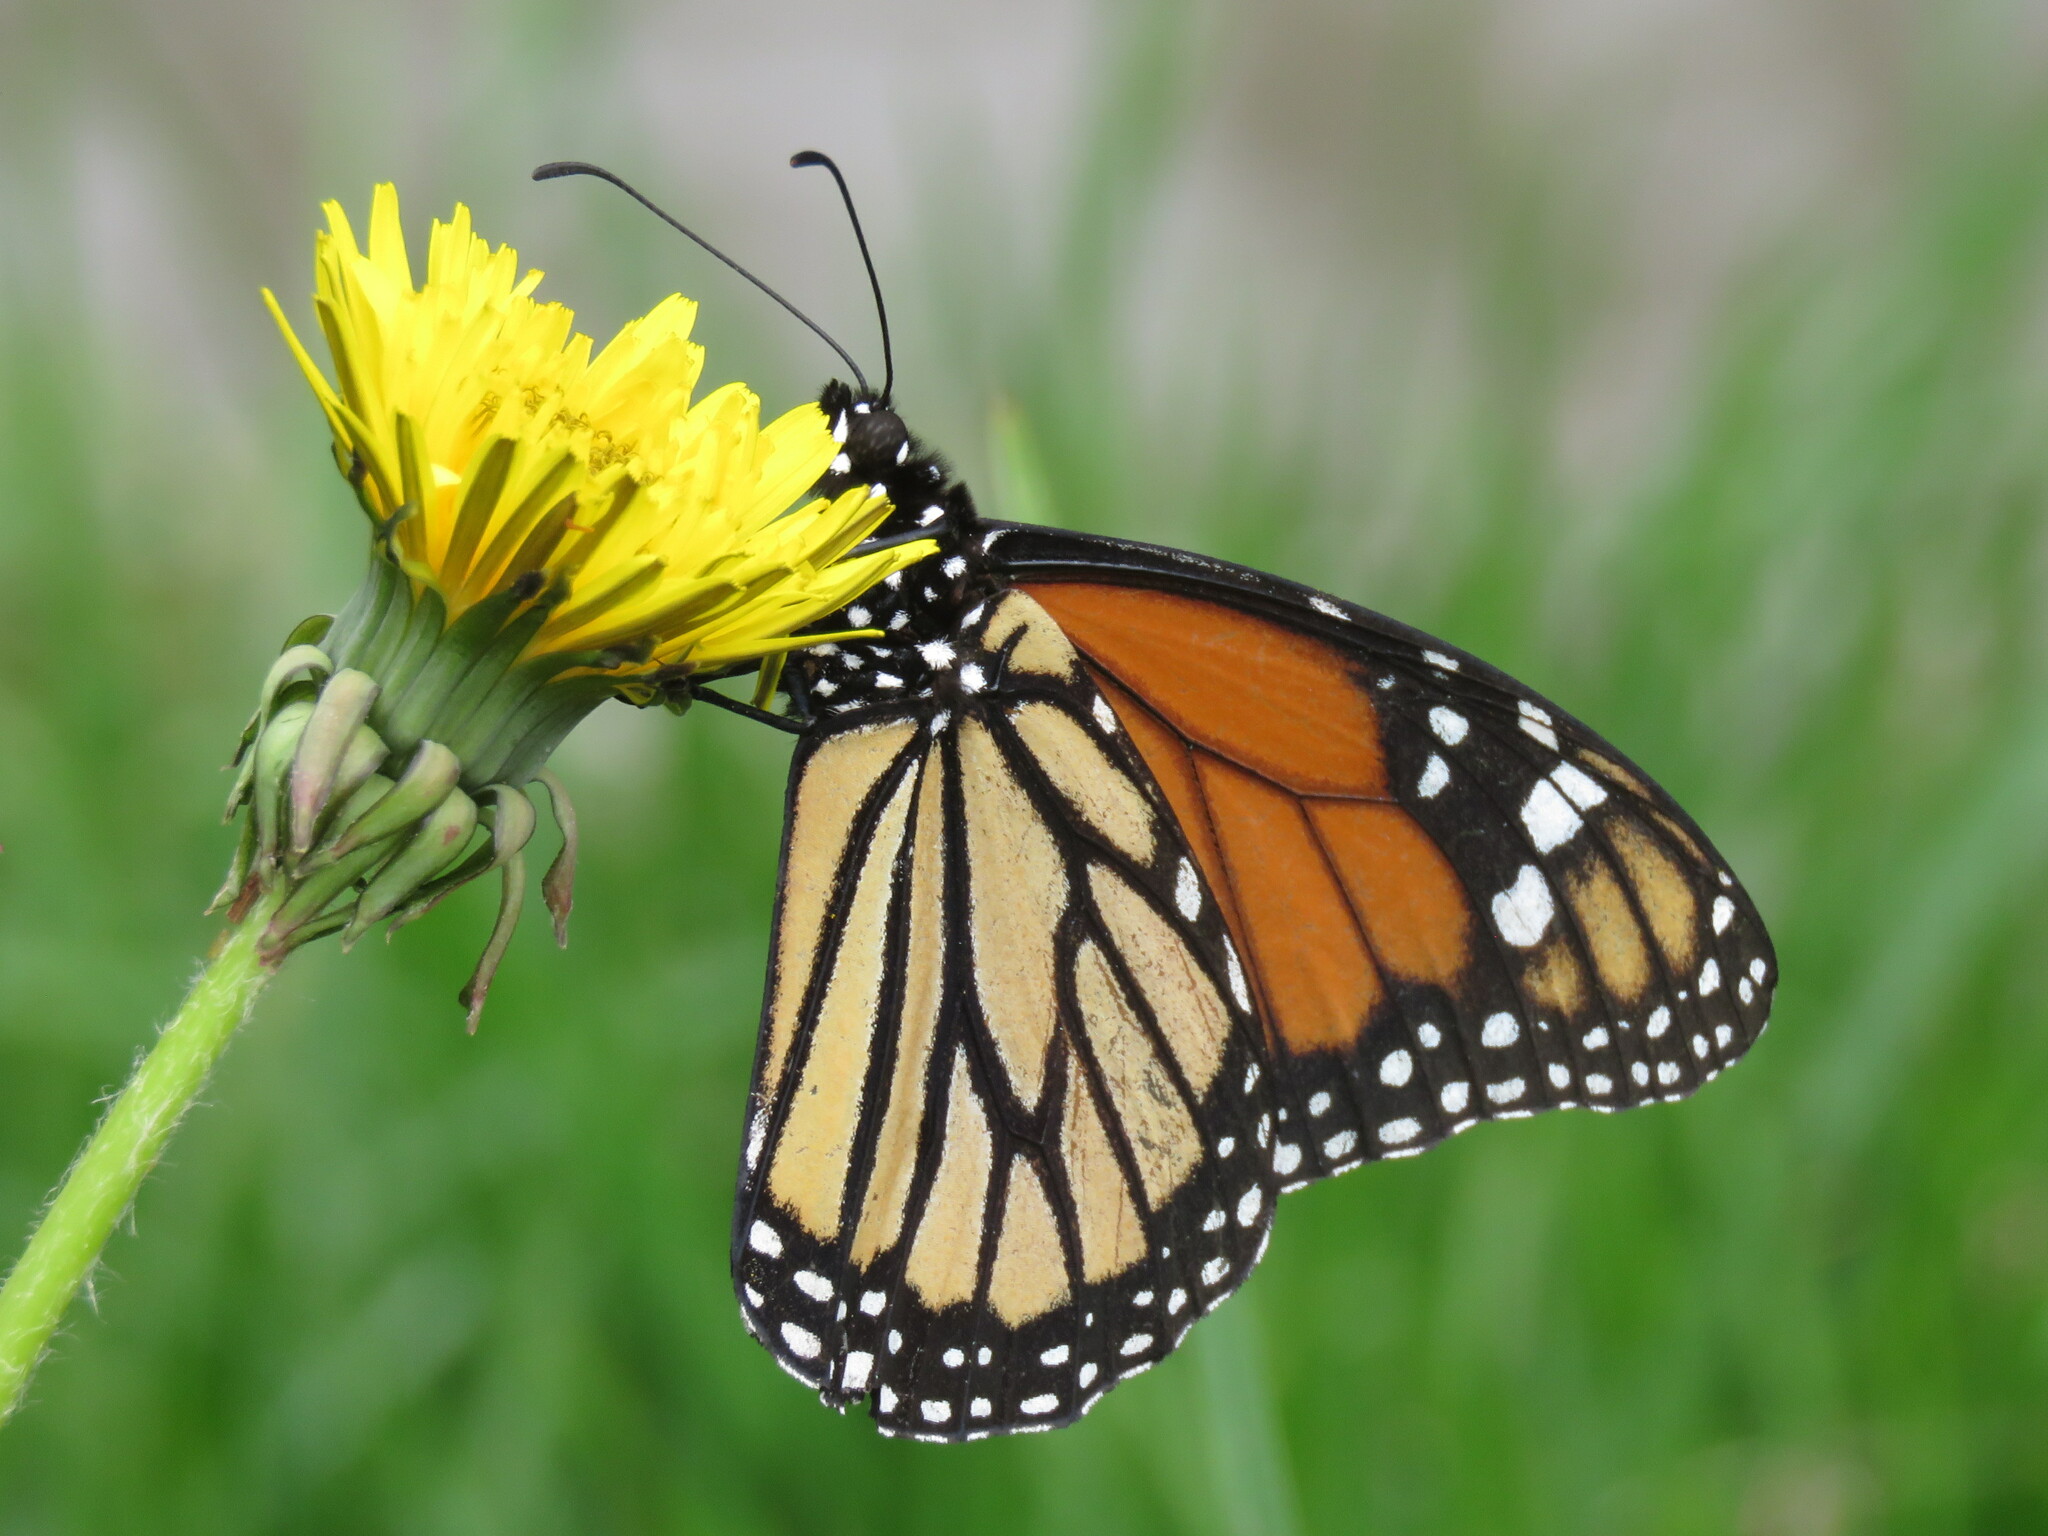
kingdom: Animalia
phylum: Arthropoda
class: Insecta
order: Lepidoptera
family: Nymphalidae
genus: Danaus
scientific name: Danaus plexippus
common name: Monarch
